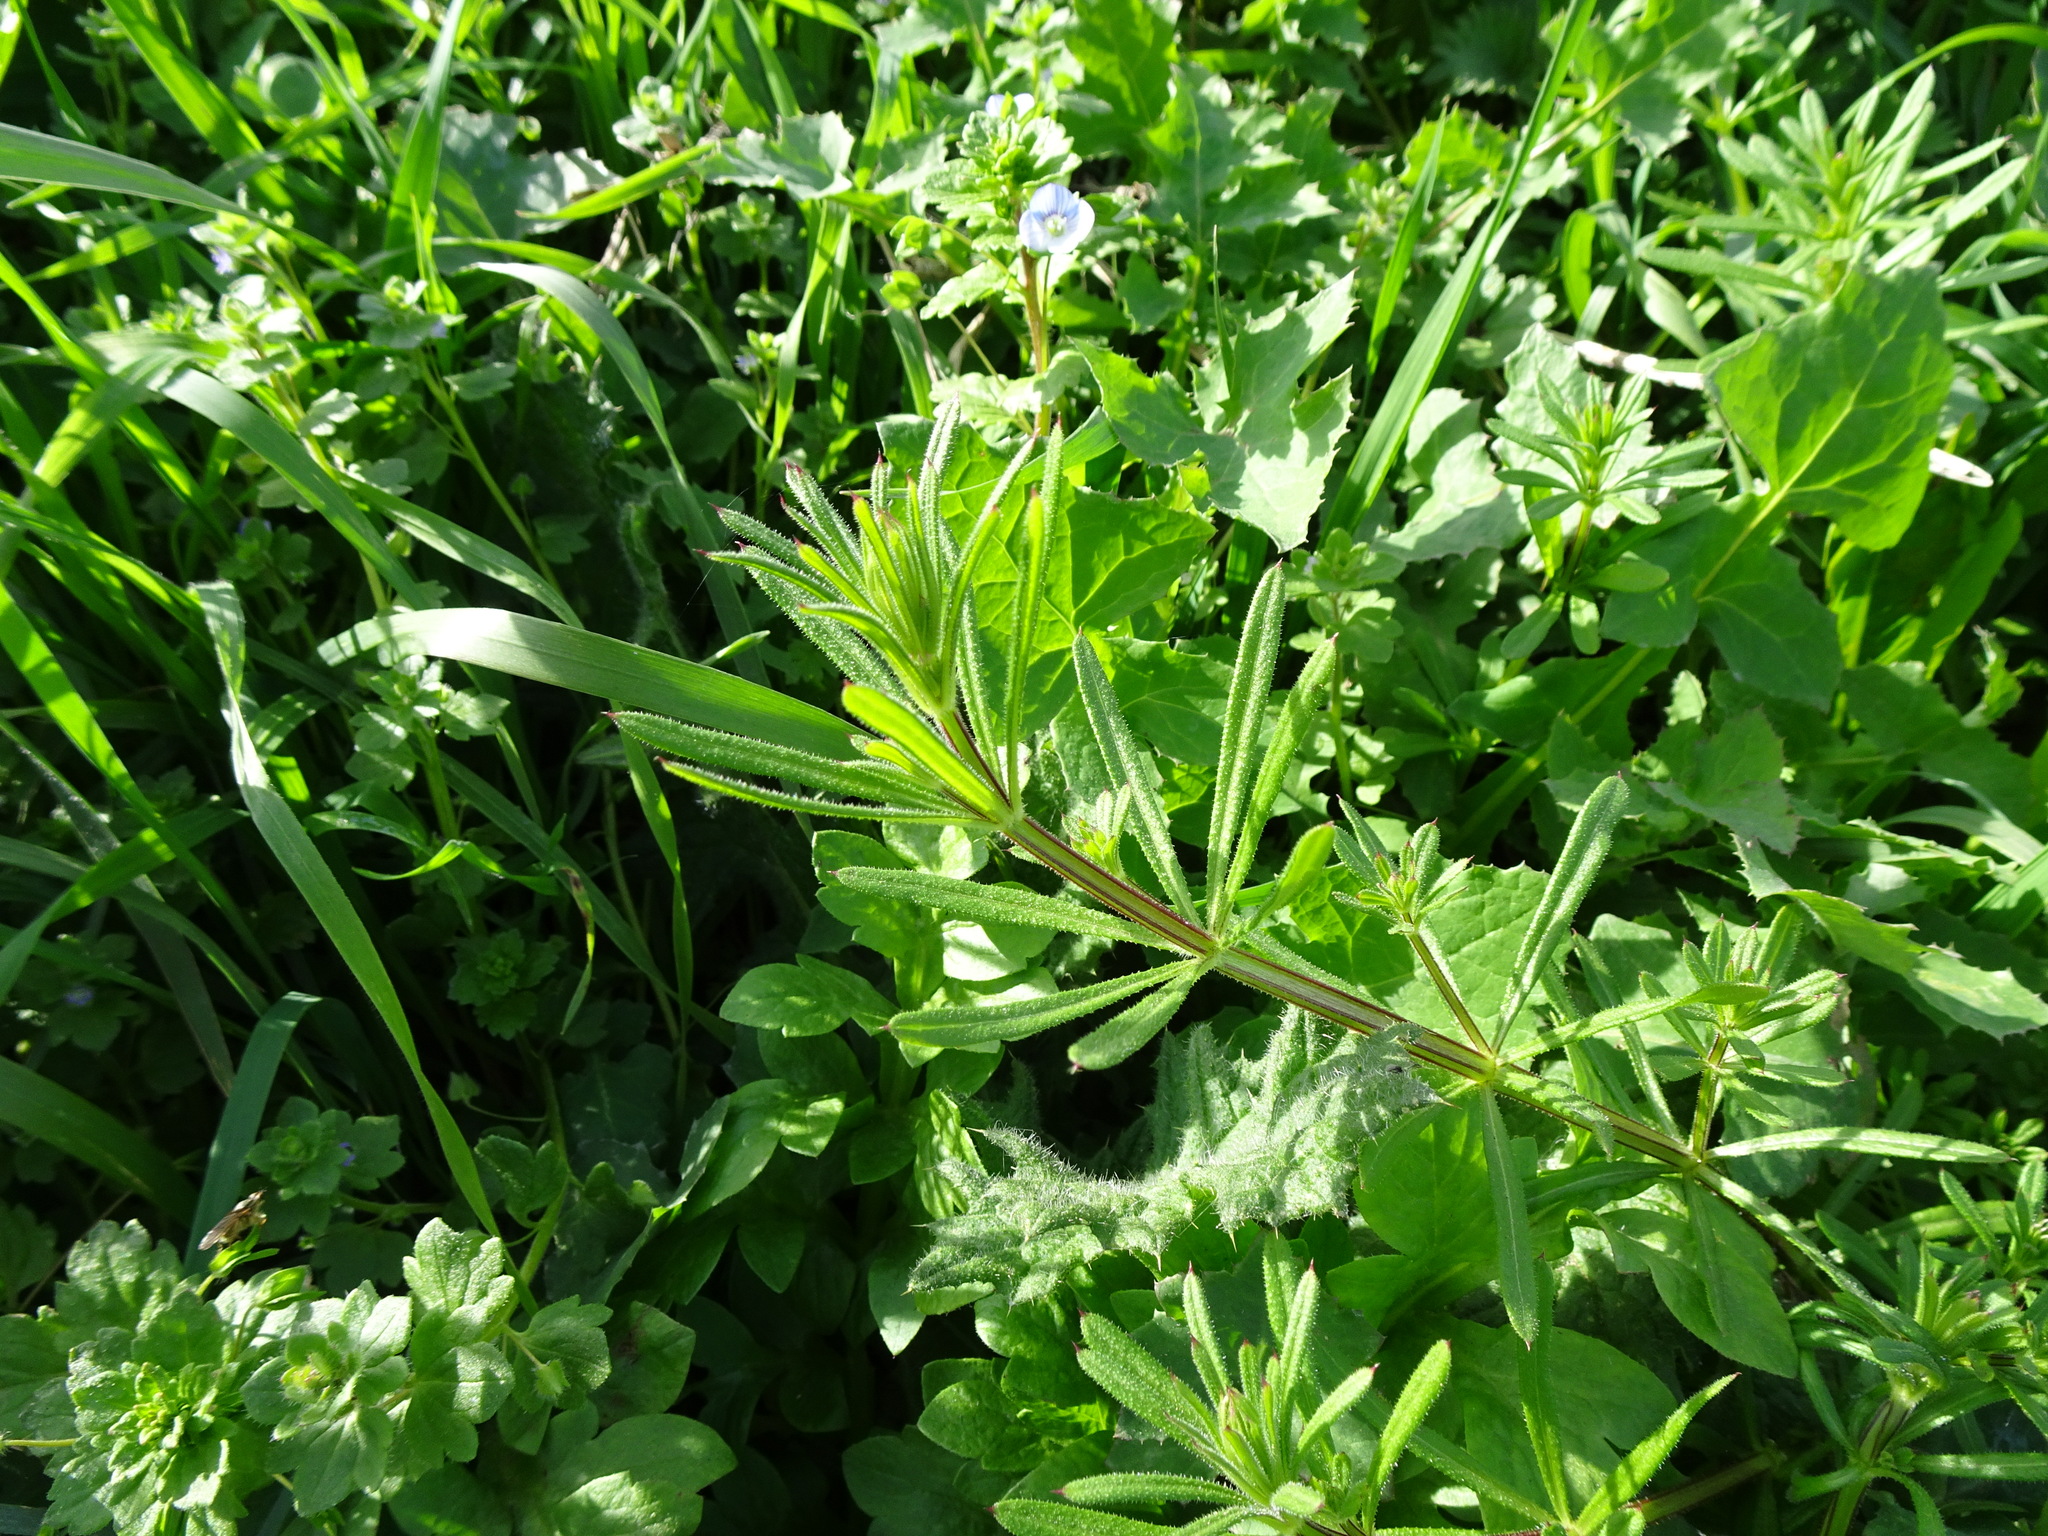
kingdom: Plantae
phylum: Tracheophyta
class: Magnoliopsida
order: Gentianales
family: Rubiaceae
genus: Galium
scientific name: Galium aparine
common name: Cleavers
